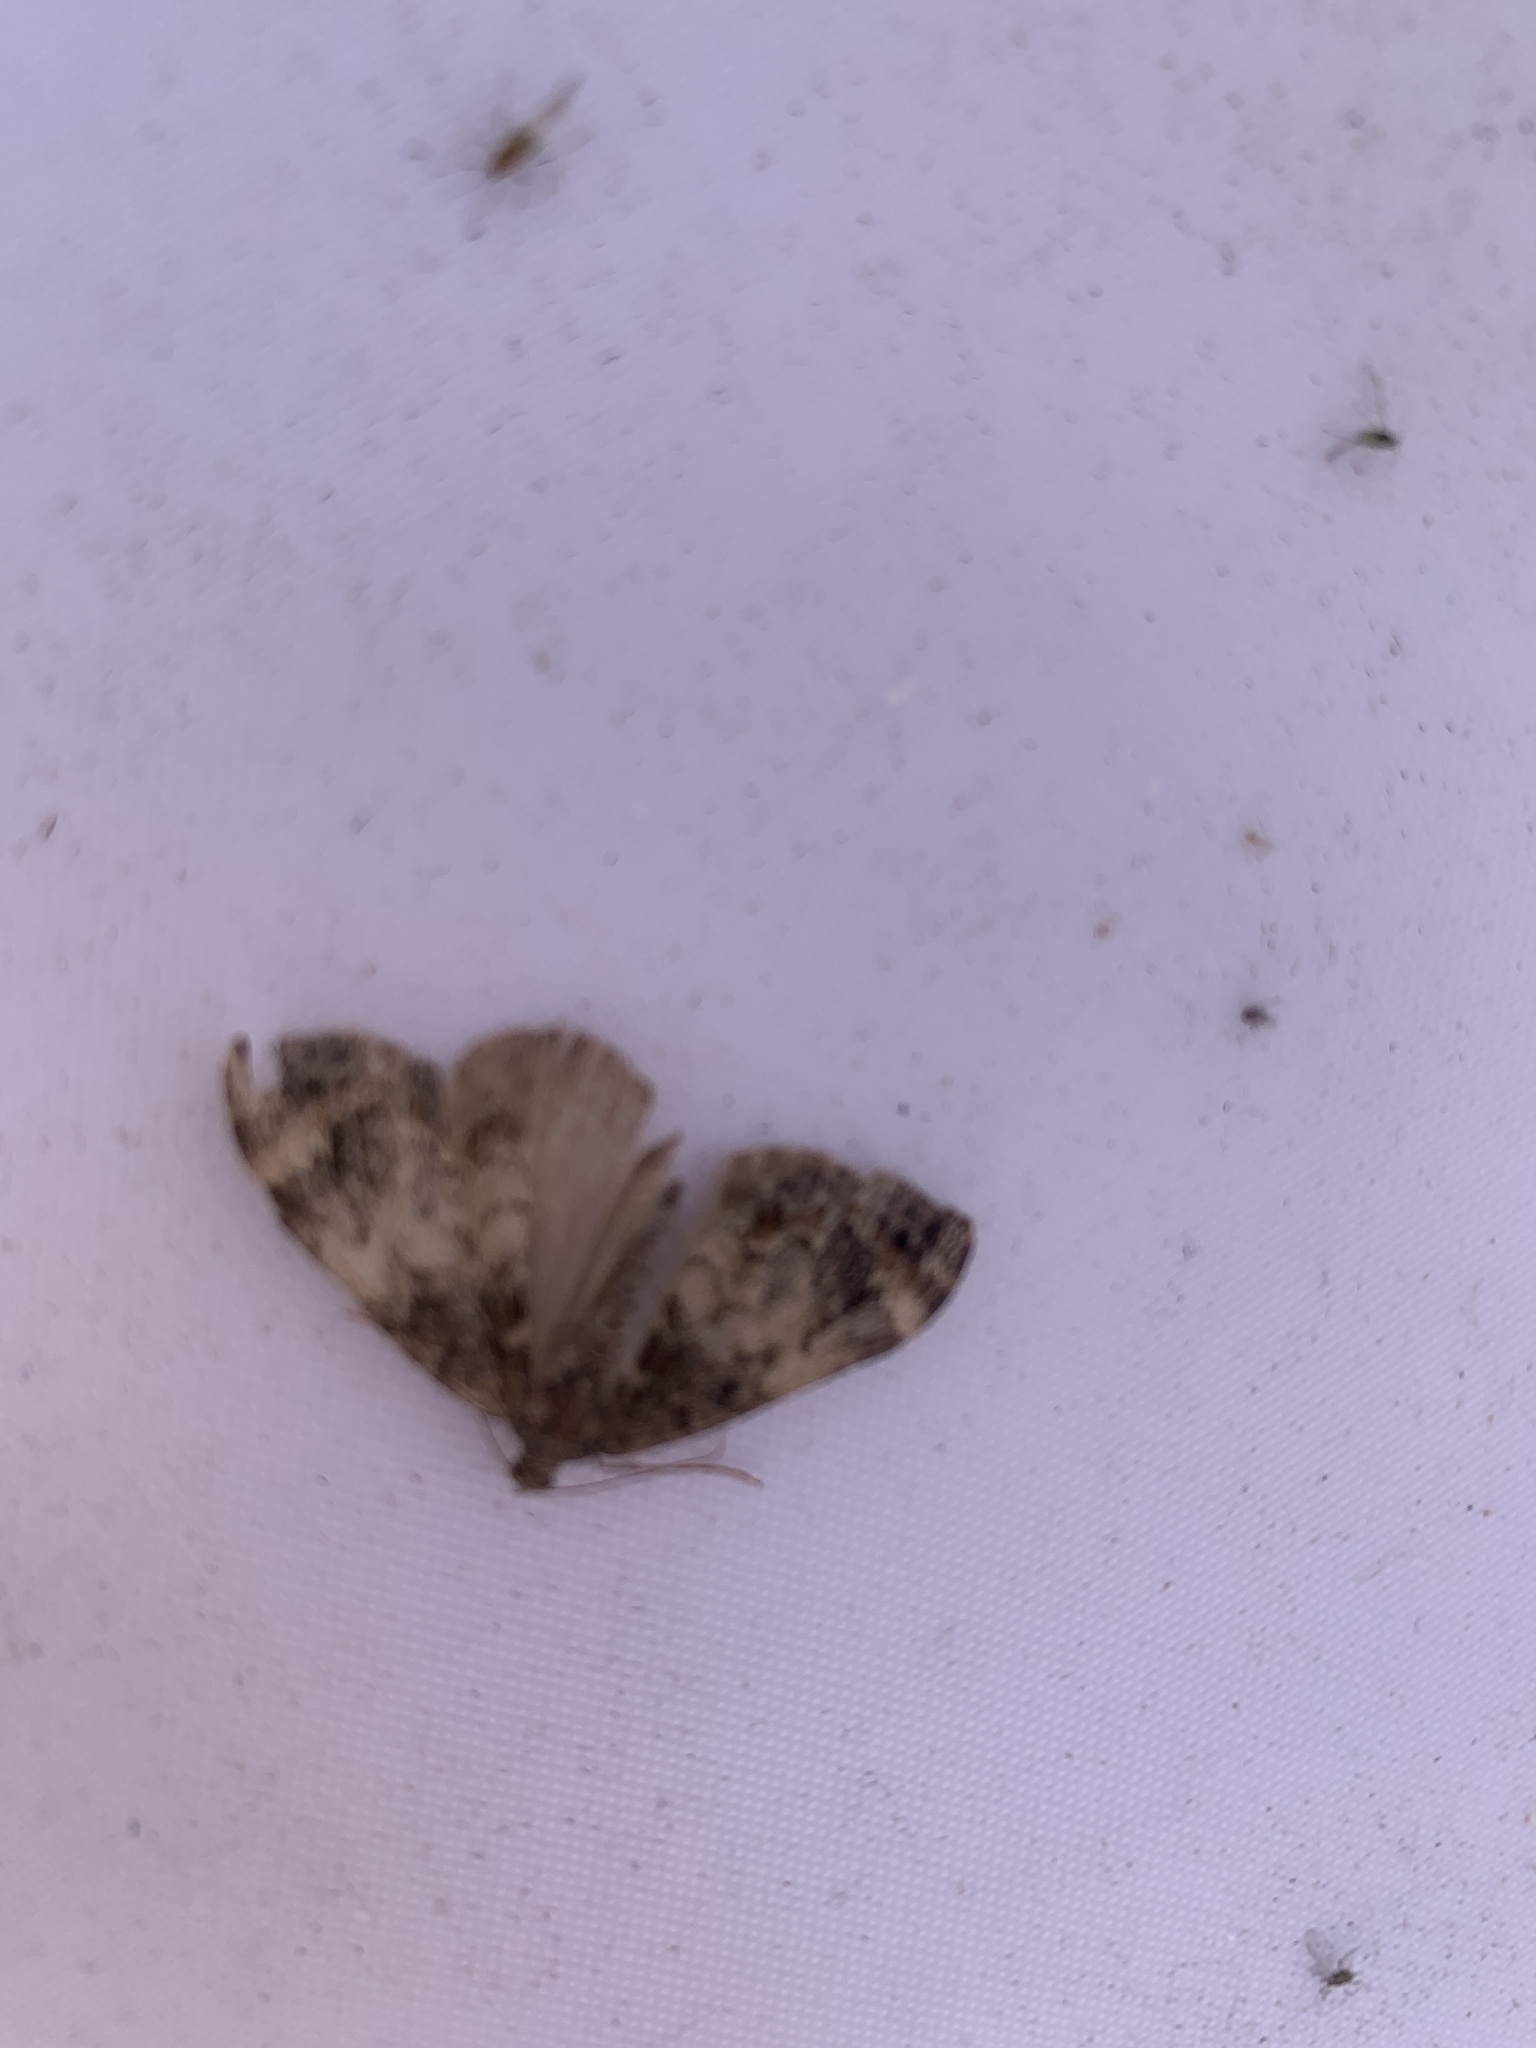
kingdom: Animalia
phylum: Arthropoda
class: Insecta
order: Lepidoptera
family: Geometridae
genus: Dysstroma
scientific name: Dysstroma truncata
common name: Common marbled carpet
